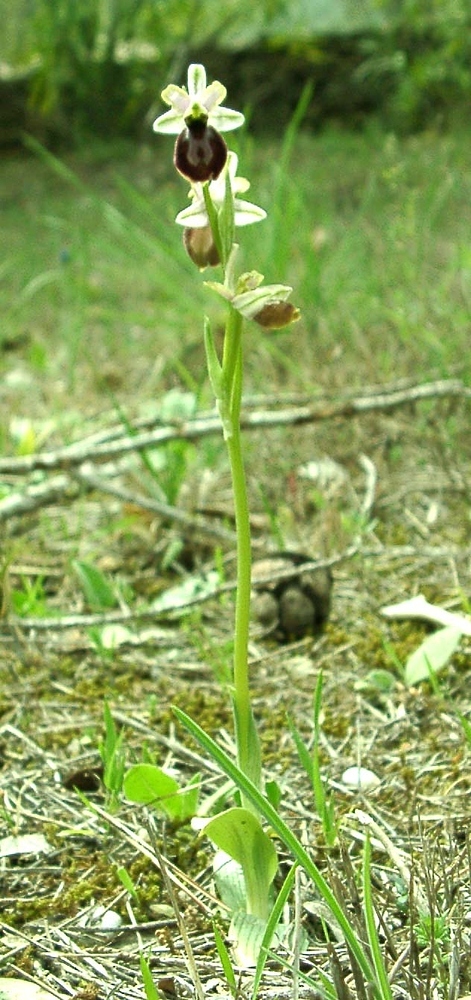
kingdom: Plantae
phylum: Tracheophyta
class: Liliopsida
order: Asparagales
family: Orchidaceae
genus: Ophrys
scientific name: Ophrys arachnitiformis
